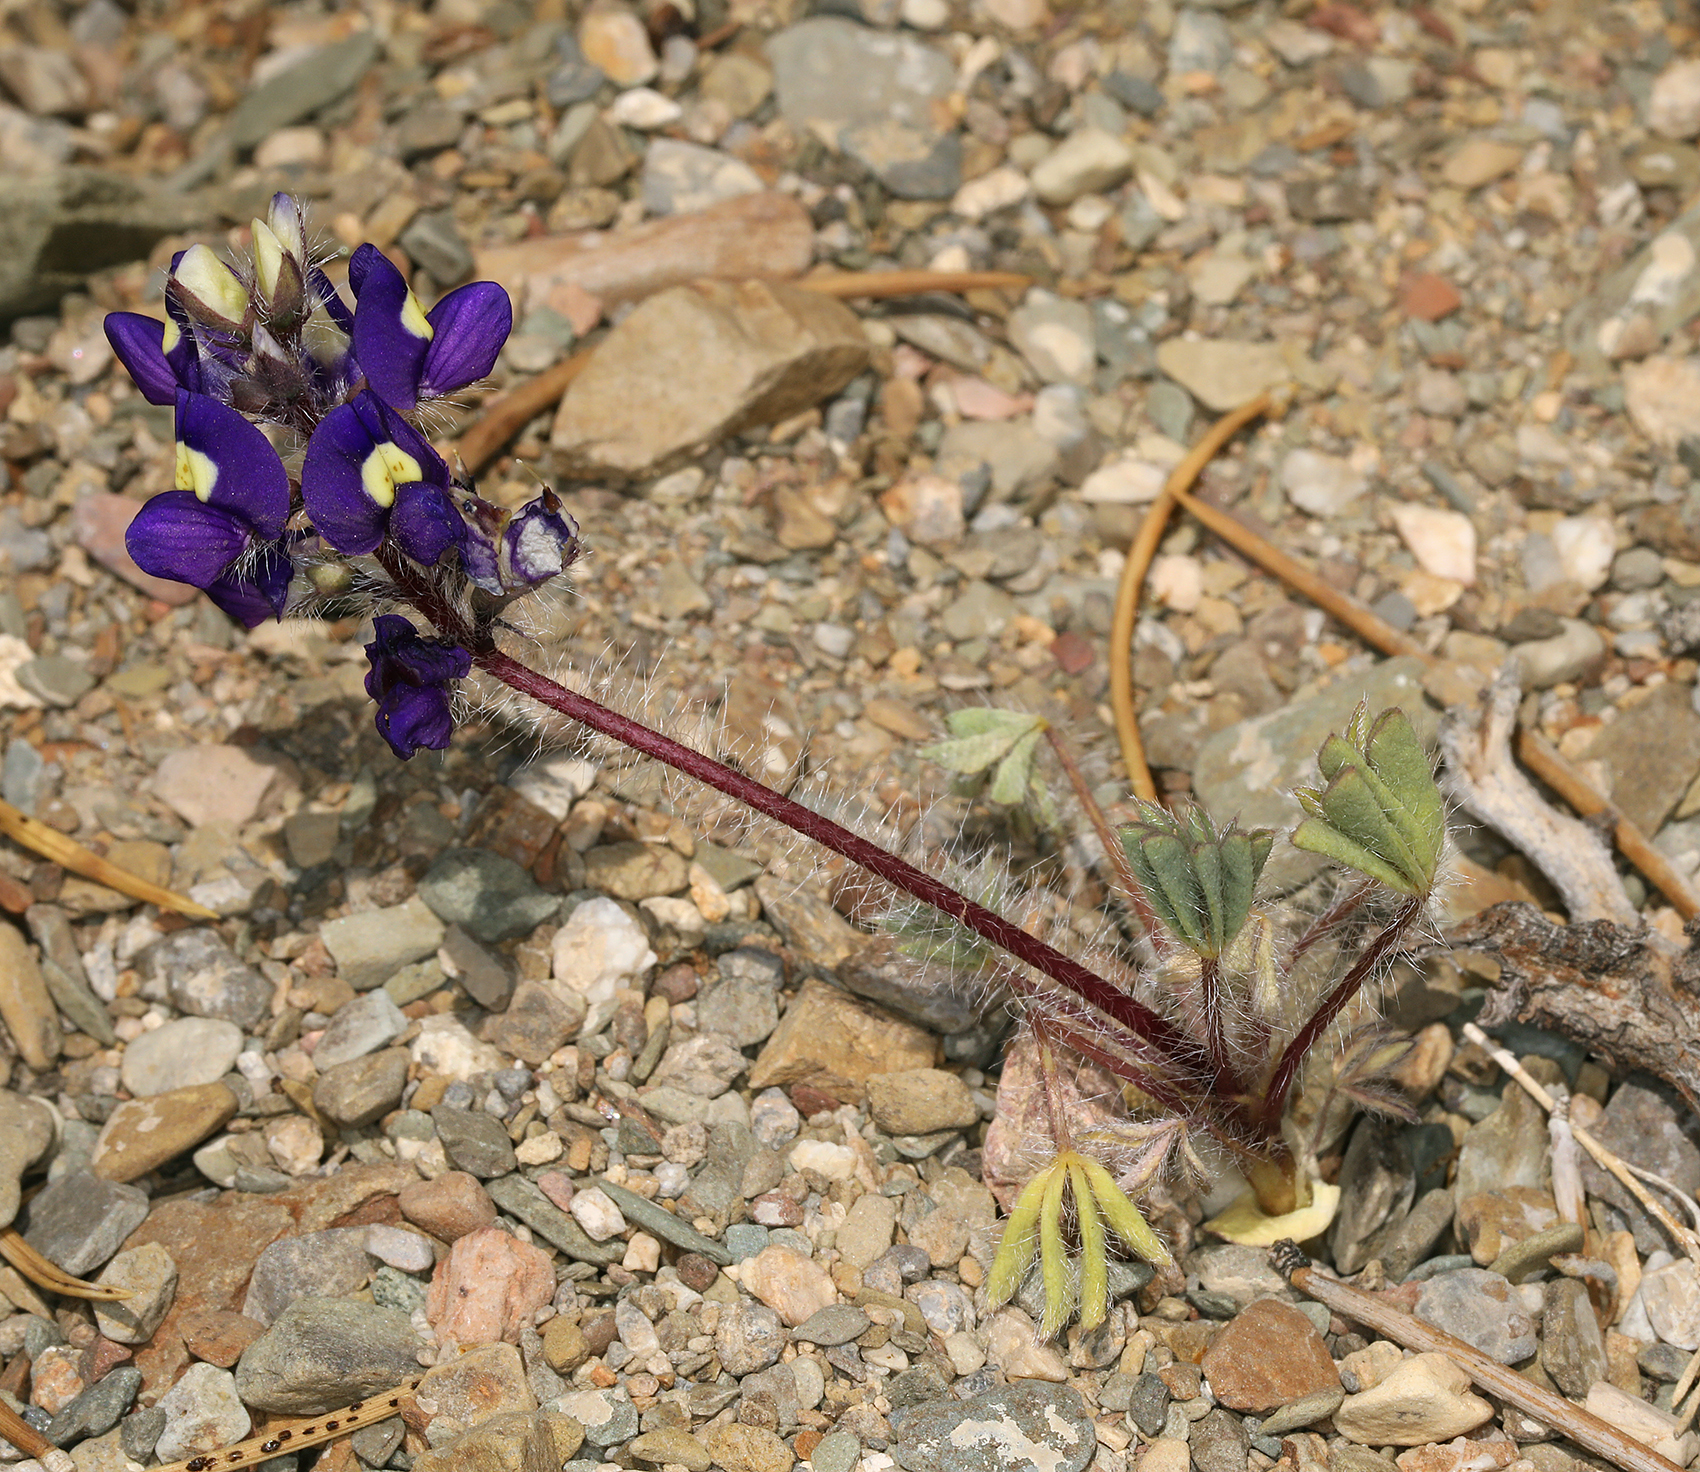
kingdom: Plantae
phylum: Tracheophyta
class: Magnoliopsida
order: Fabales
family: Fabaceae
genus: Lupinus
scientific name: Lupinus flavoculatus
